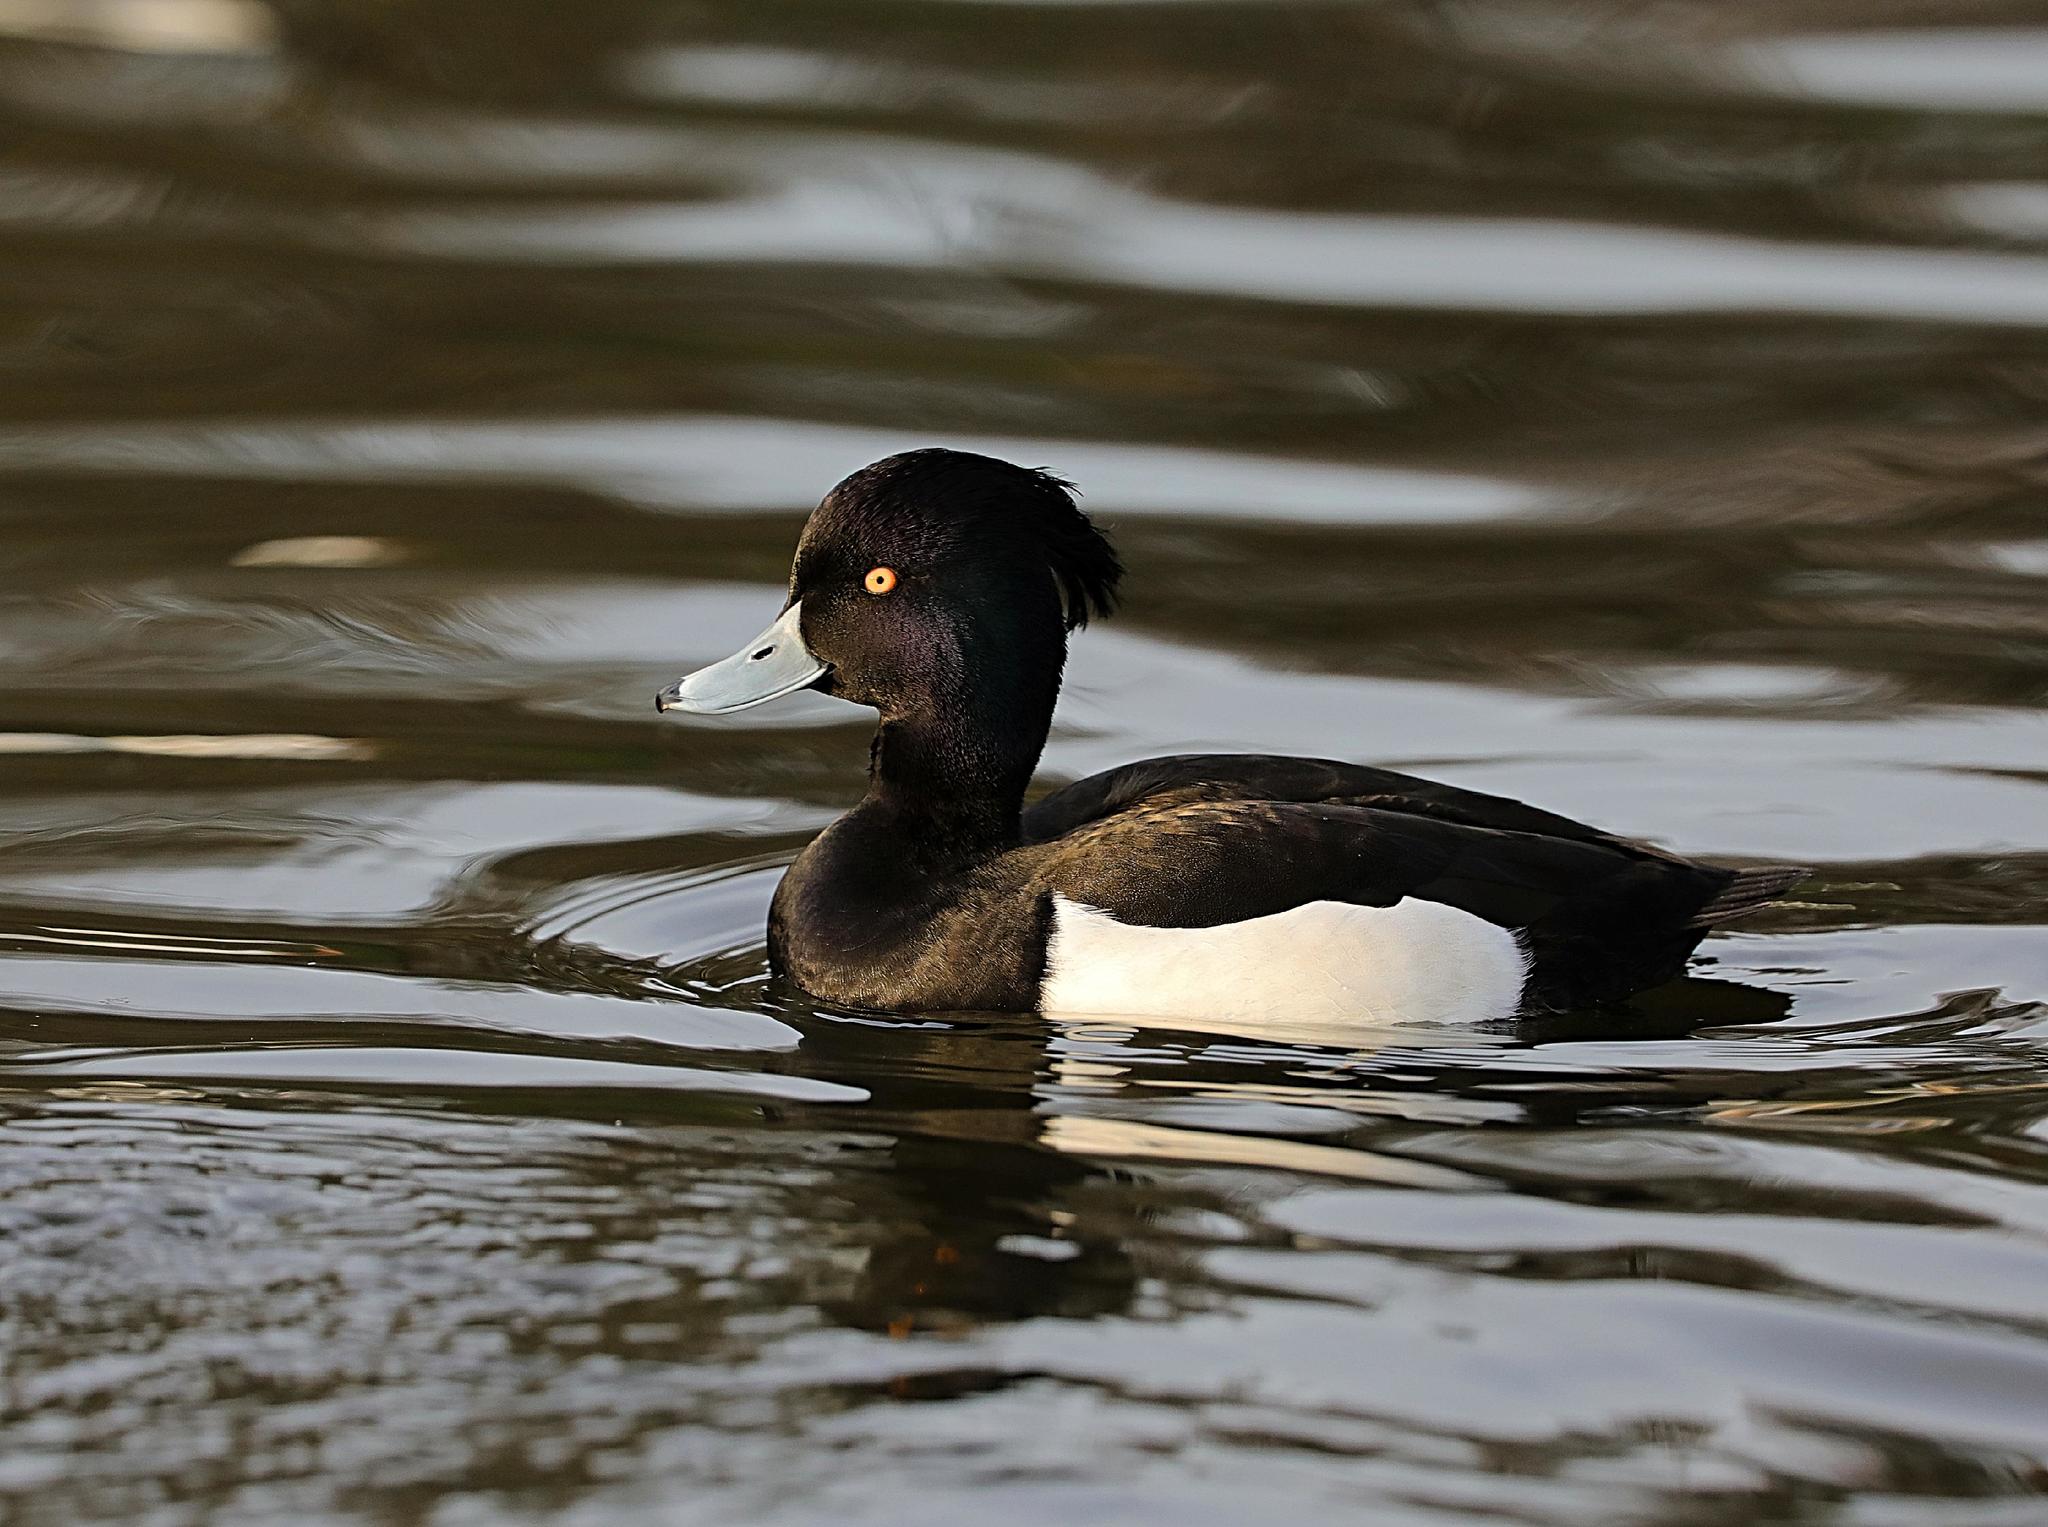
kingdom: Animalia
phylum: Chordata
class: Aves
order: Anseriformes
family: Anatidae
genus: Aythya
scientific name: Aythya fuligula
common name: Tufted duck
